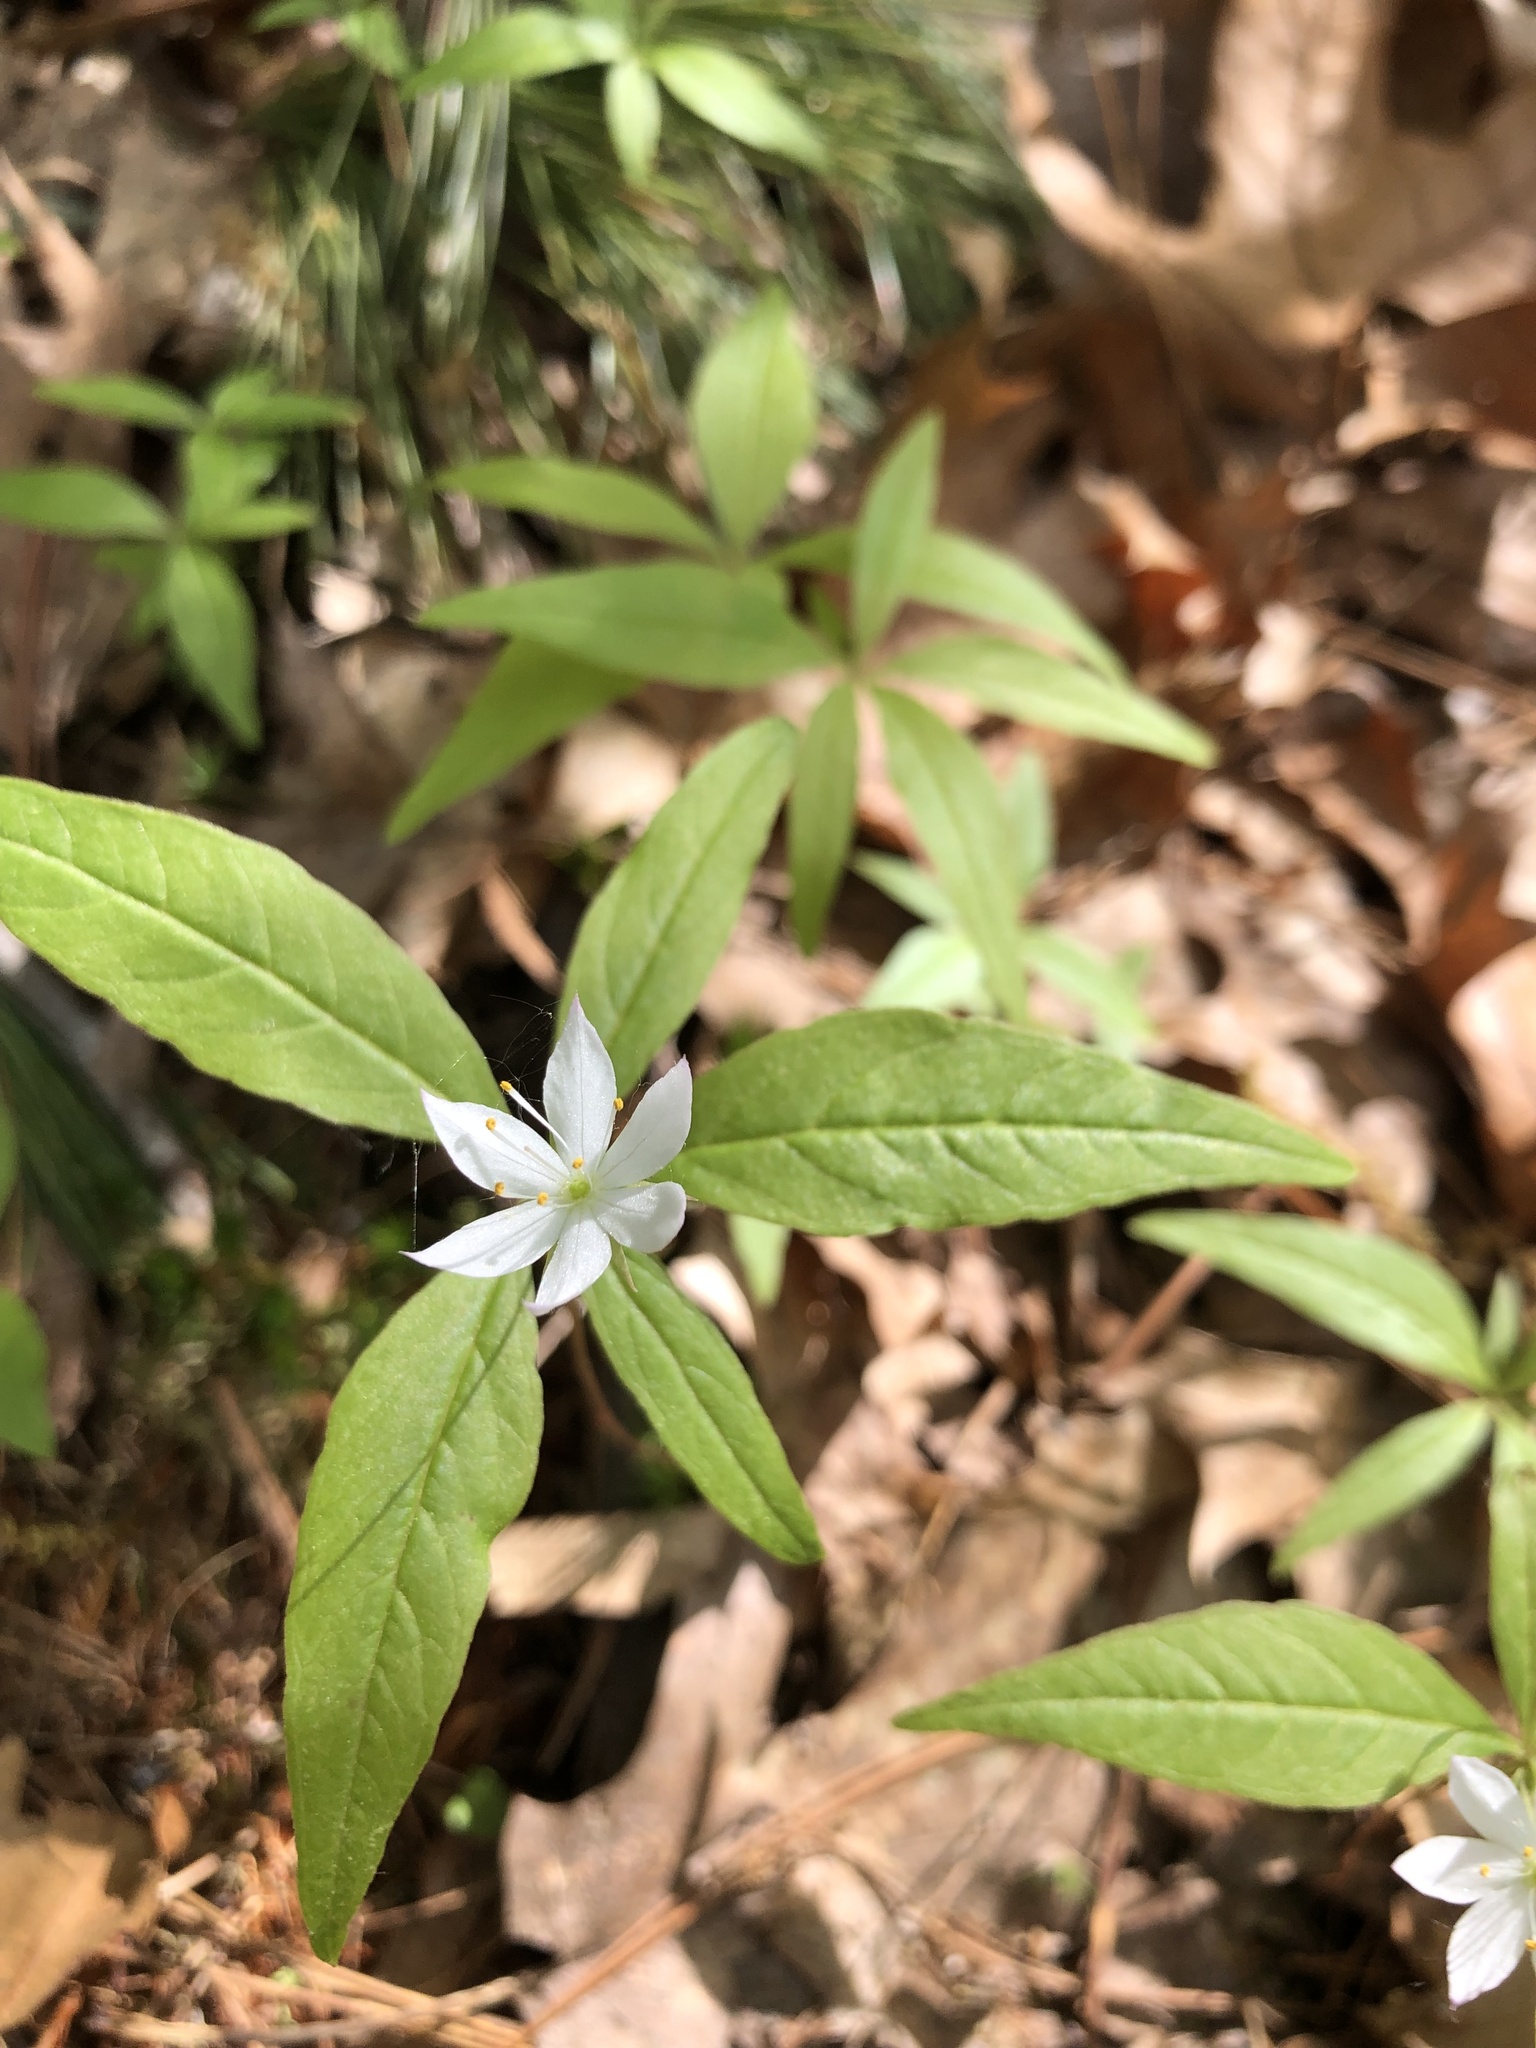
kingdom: Plantae
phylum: Tracheophyta
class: Magnoliopsida
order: Ericales
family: Primulaceae
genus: Lysimachia
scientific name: Lysimachia borealis
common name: American starflower
